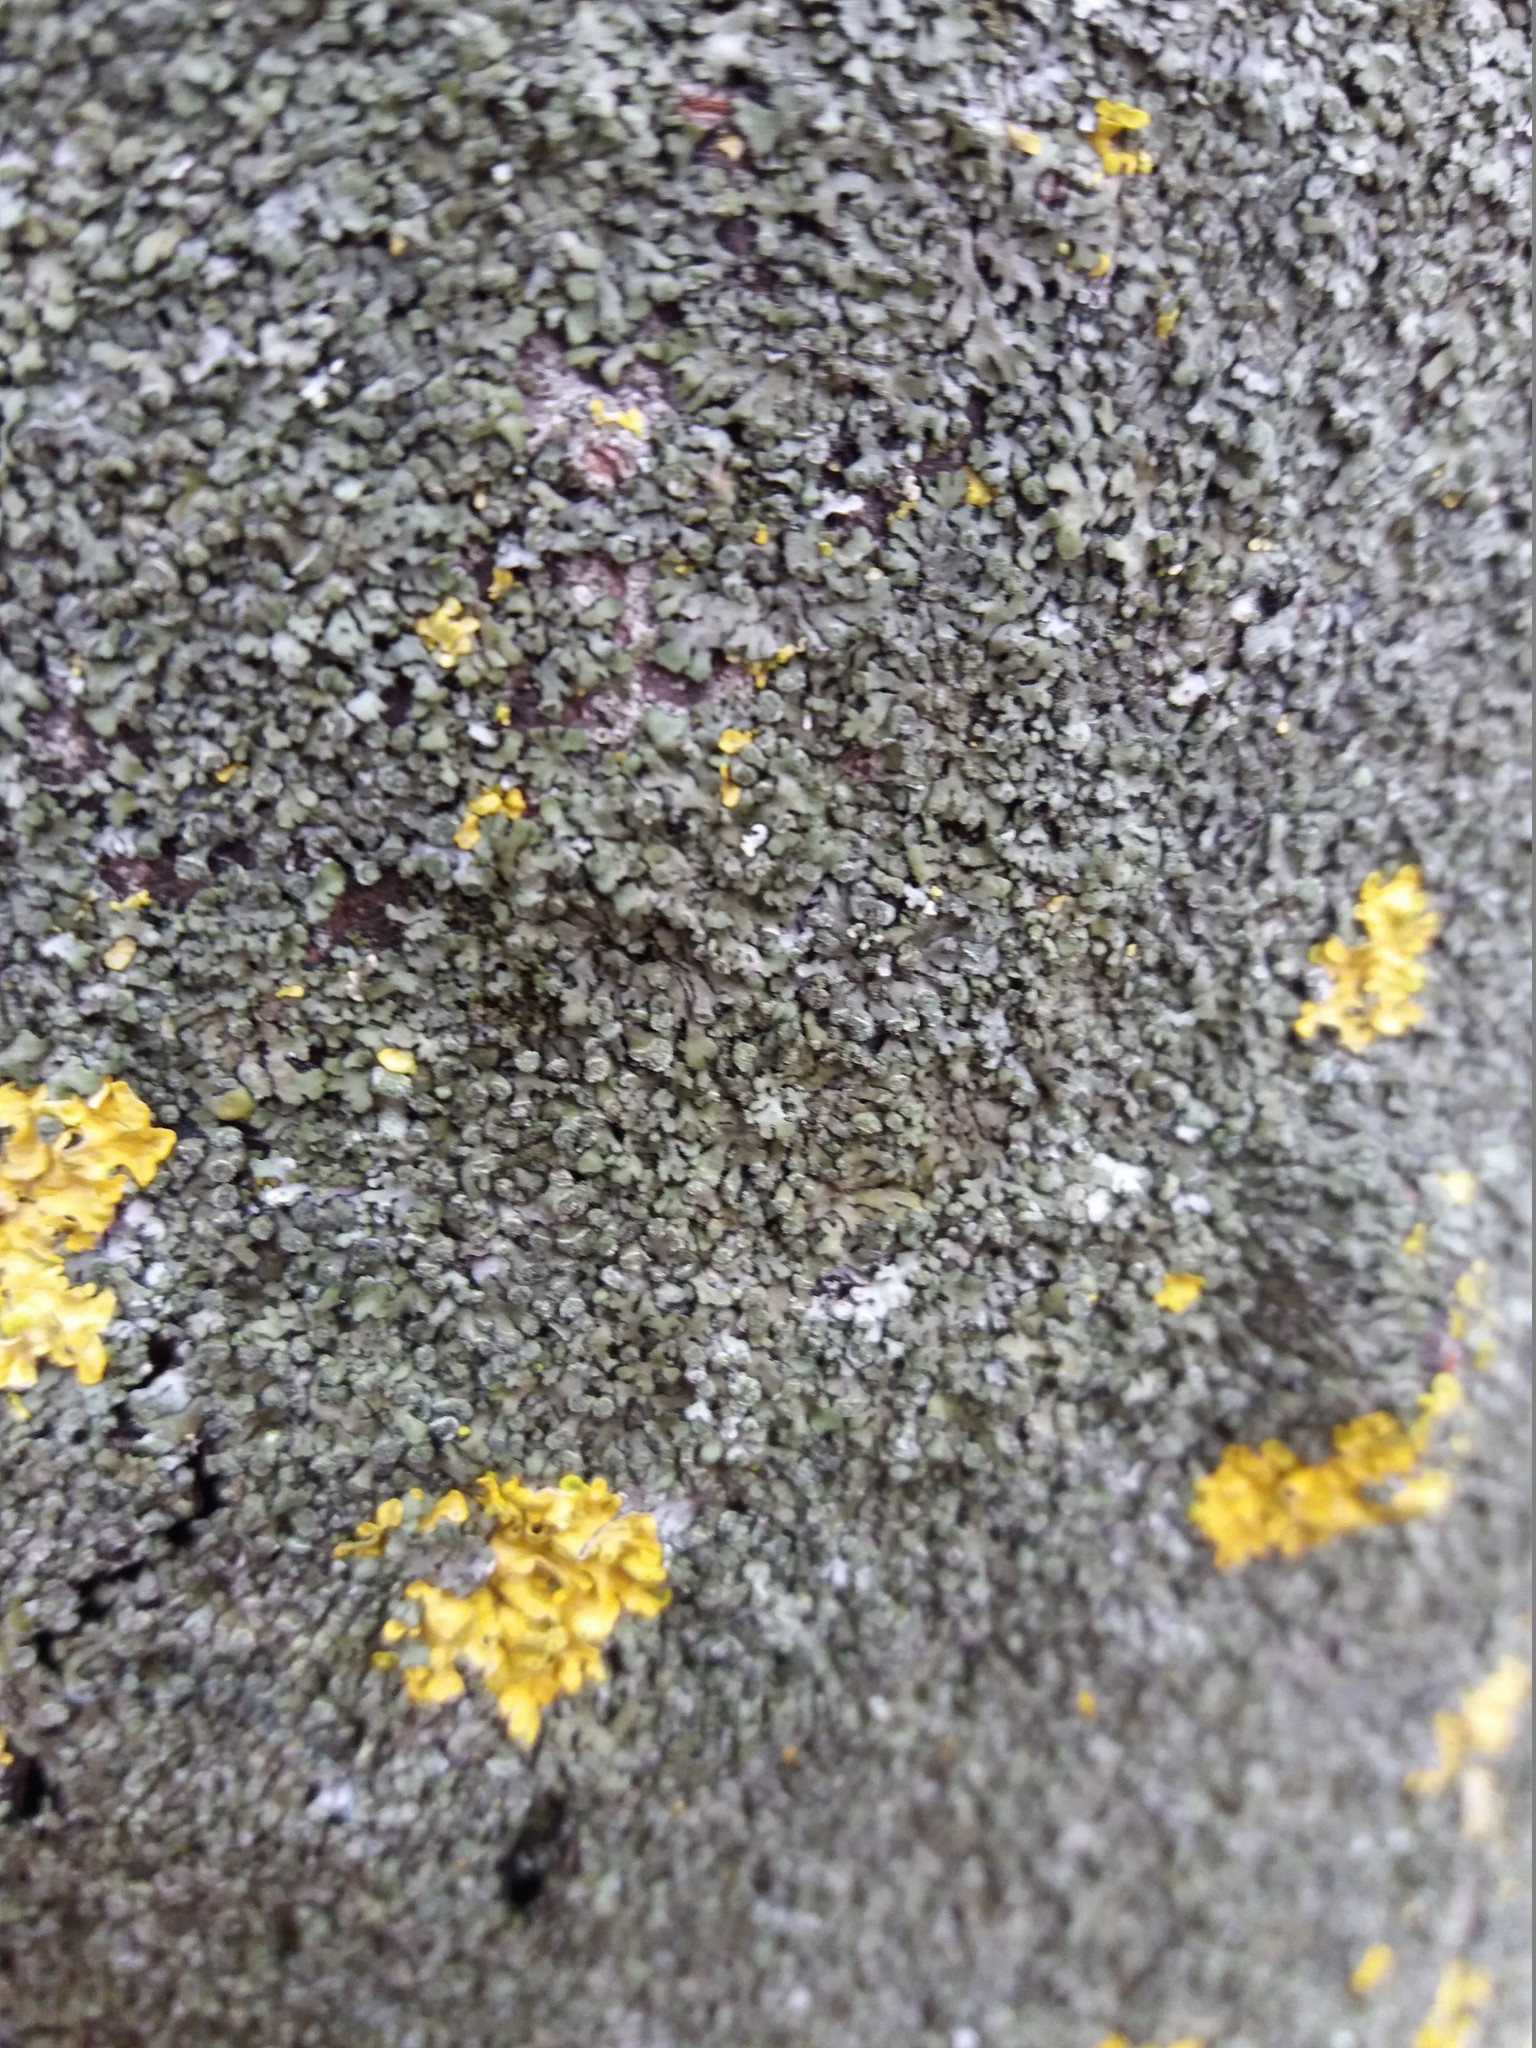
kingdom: Fungi
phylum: Ascomycota
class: Lecanoromycetes
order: Caliciales
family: Physciaceae
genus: Phaeophyscia
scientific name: Phaeophyscia orbicularis
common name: Mealy shadow lichen
